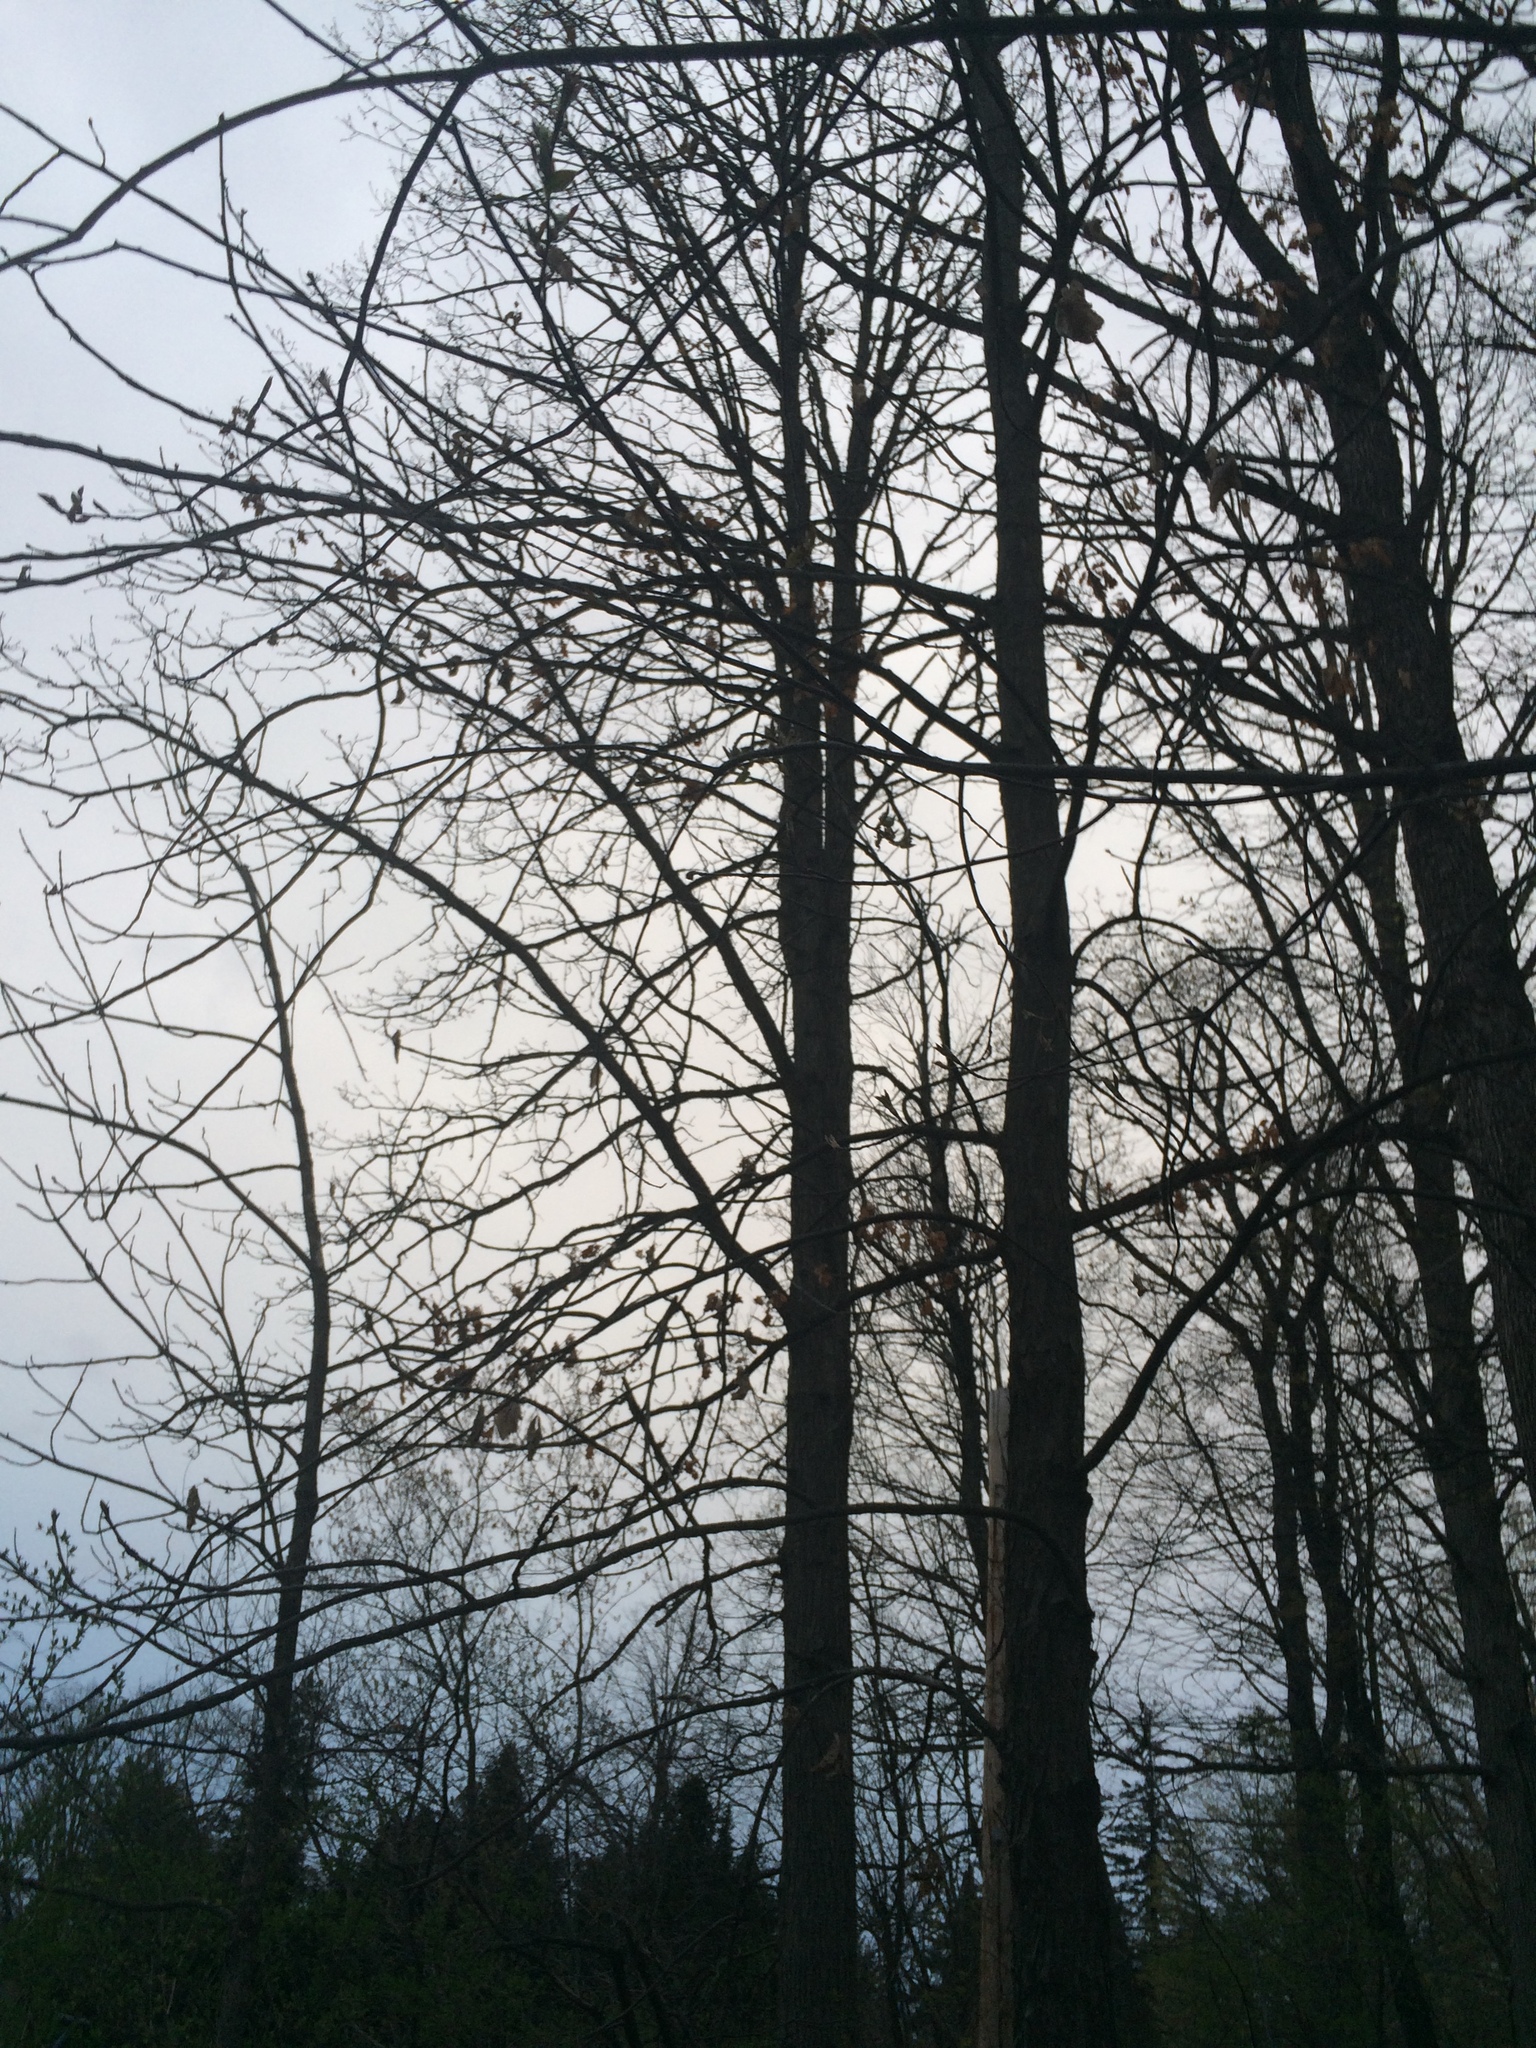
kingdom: Plantae
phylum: Tracheophyta
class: Magnoliopsida
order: Fagales
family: Juglandaceae
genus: Carya
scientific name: Carya ovata
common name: Shagbark hickory
